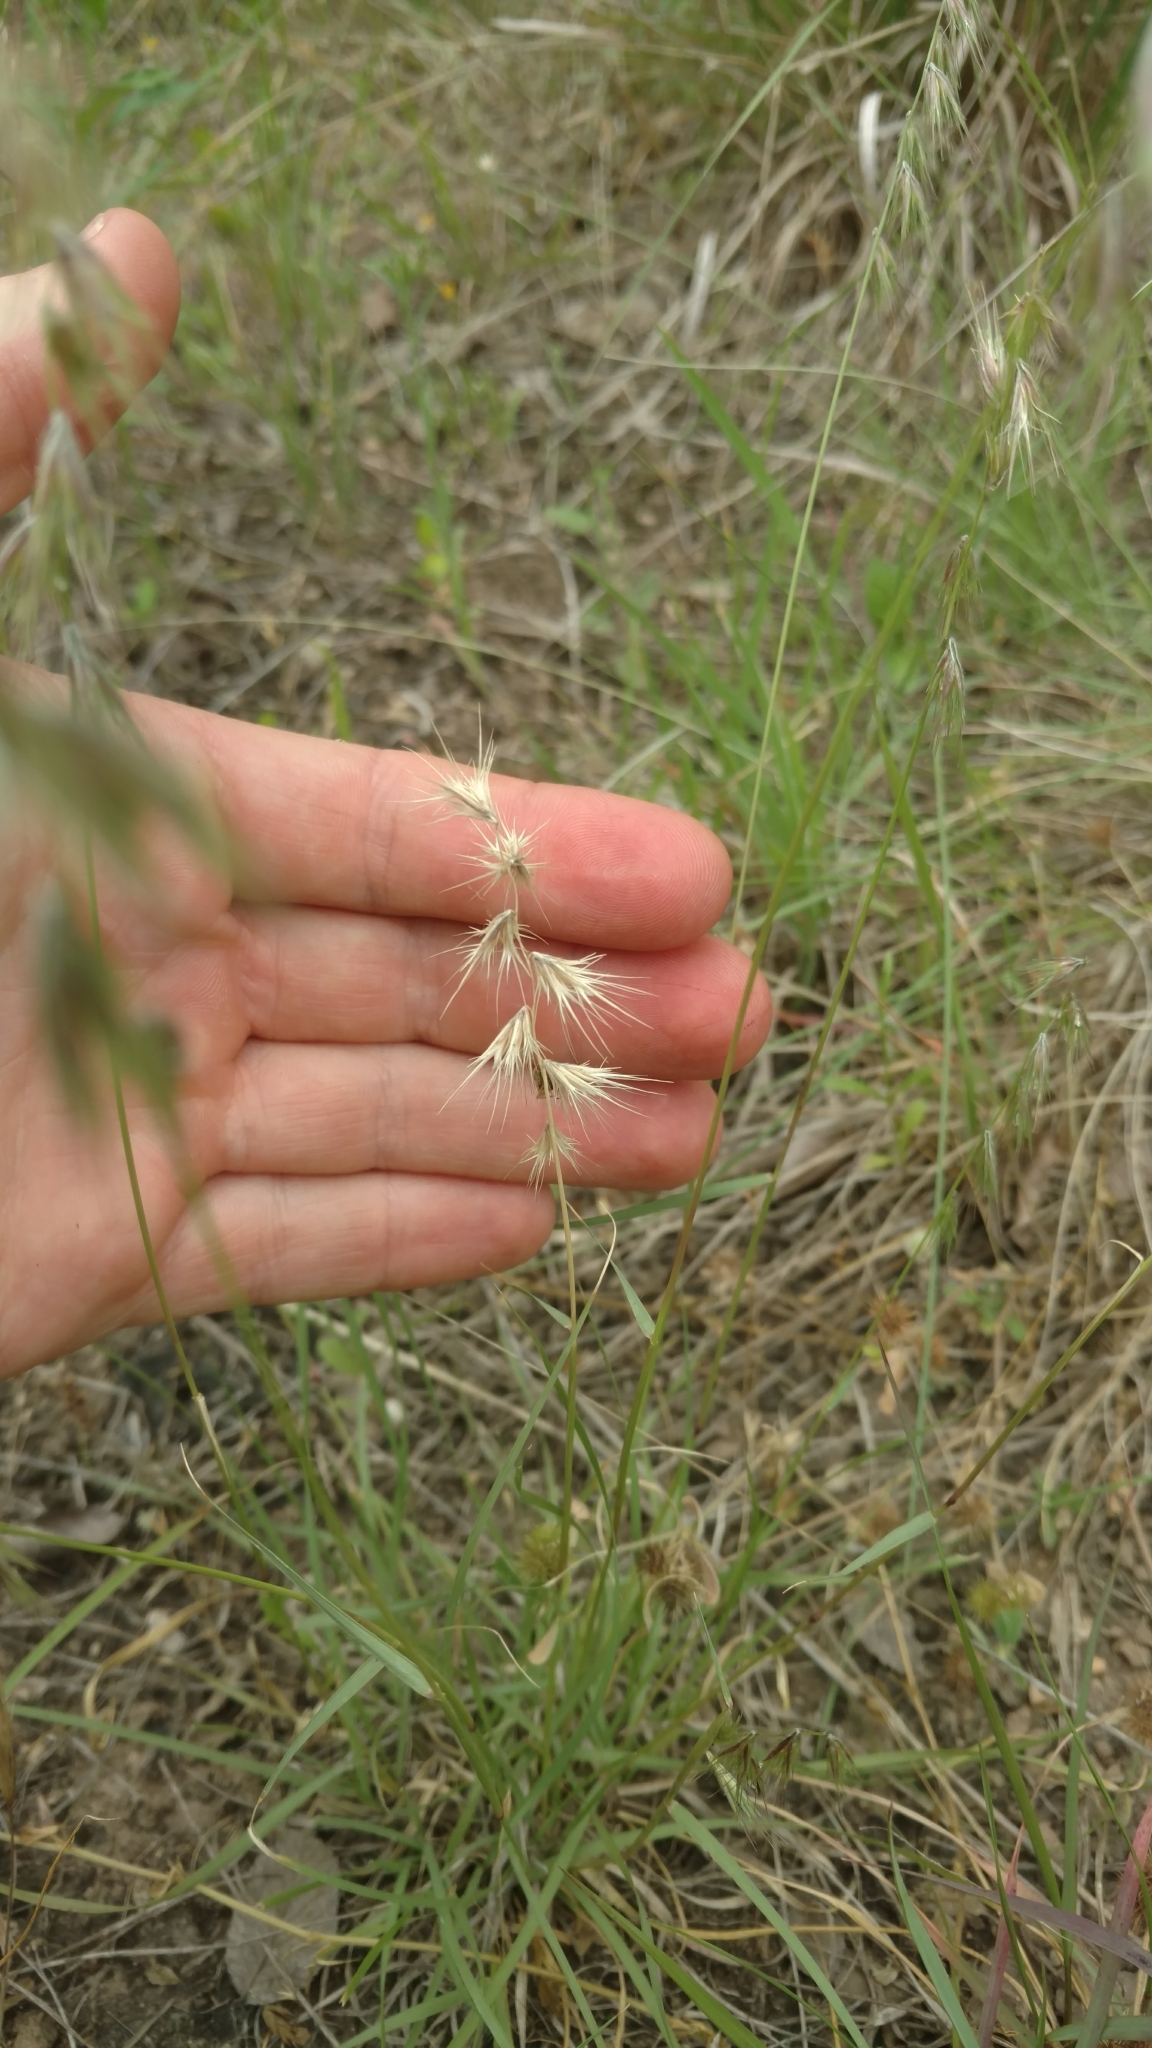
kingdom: Plantae
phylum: Tracheophyta
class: Liliopsida
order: Poales
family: Poaceae
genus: Bouteloua
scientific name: Bouteloua rigidiseta
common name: Texas grama
